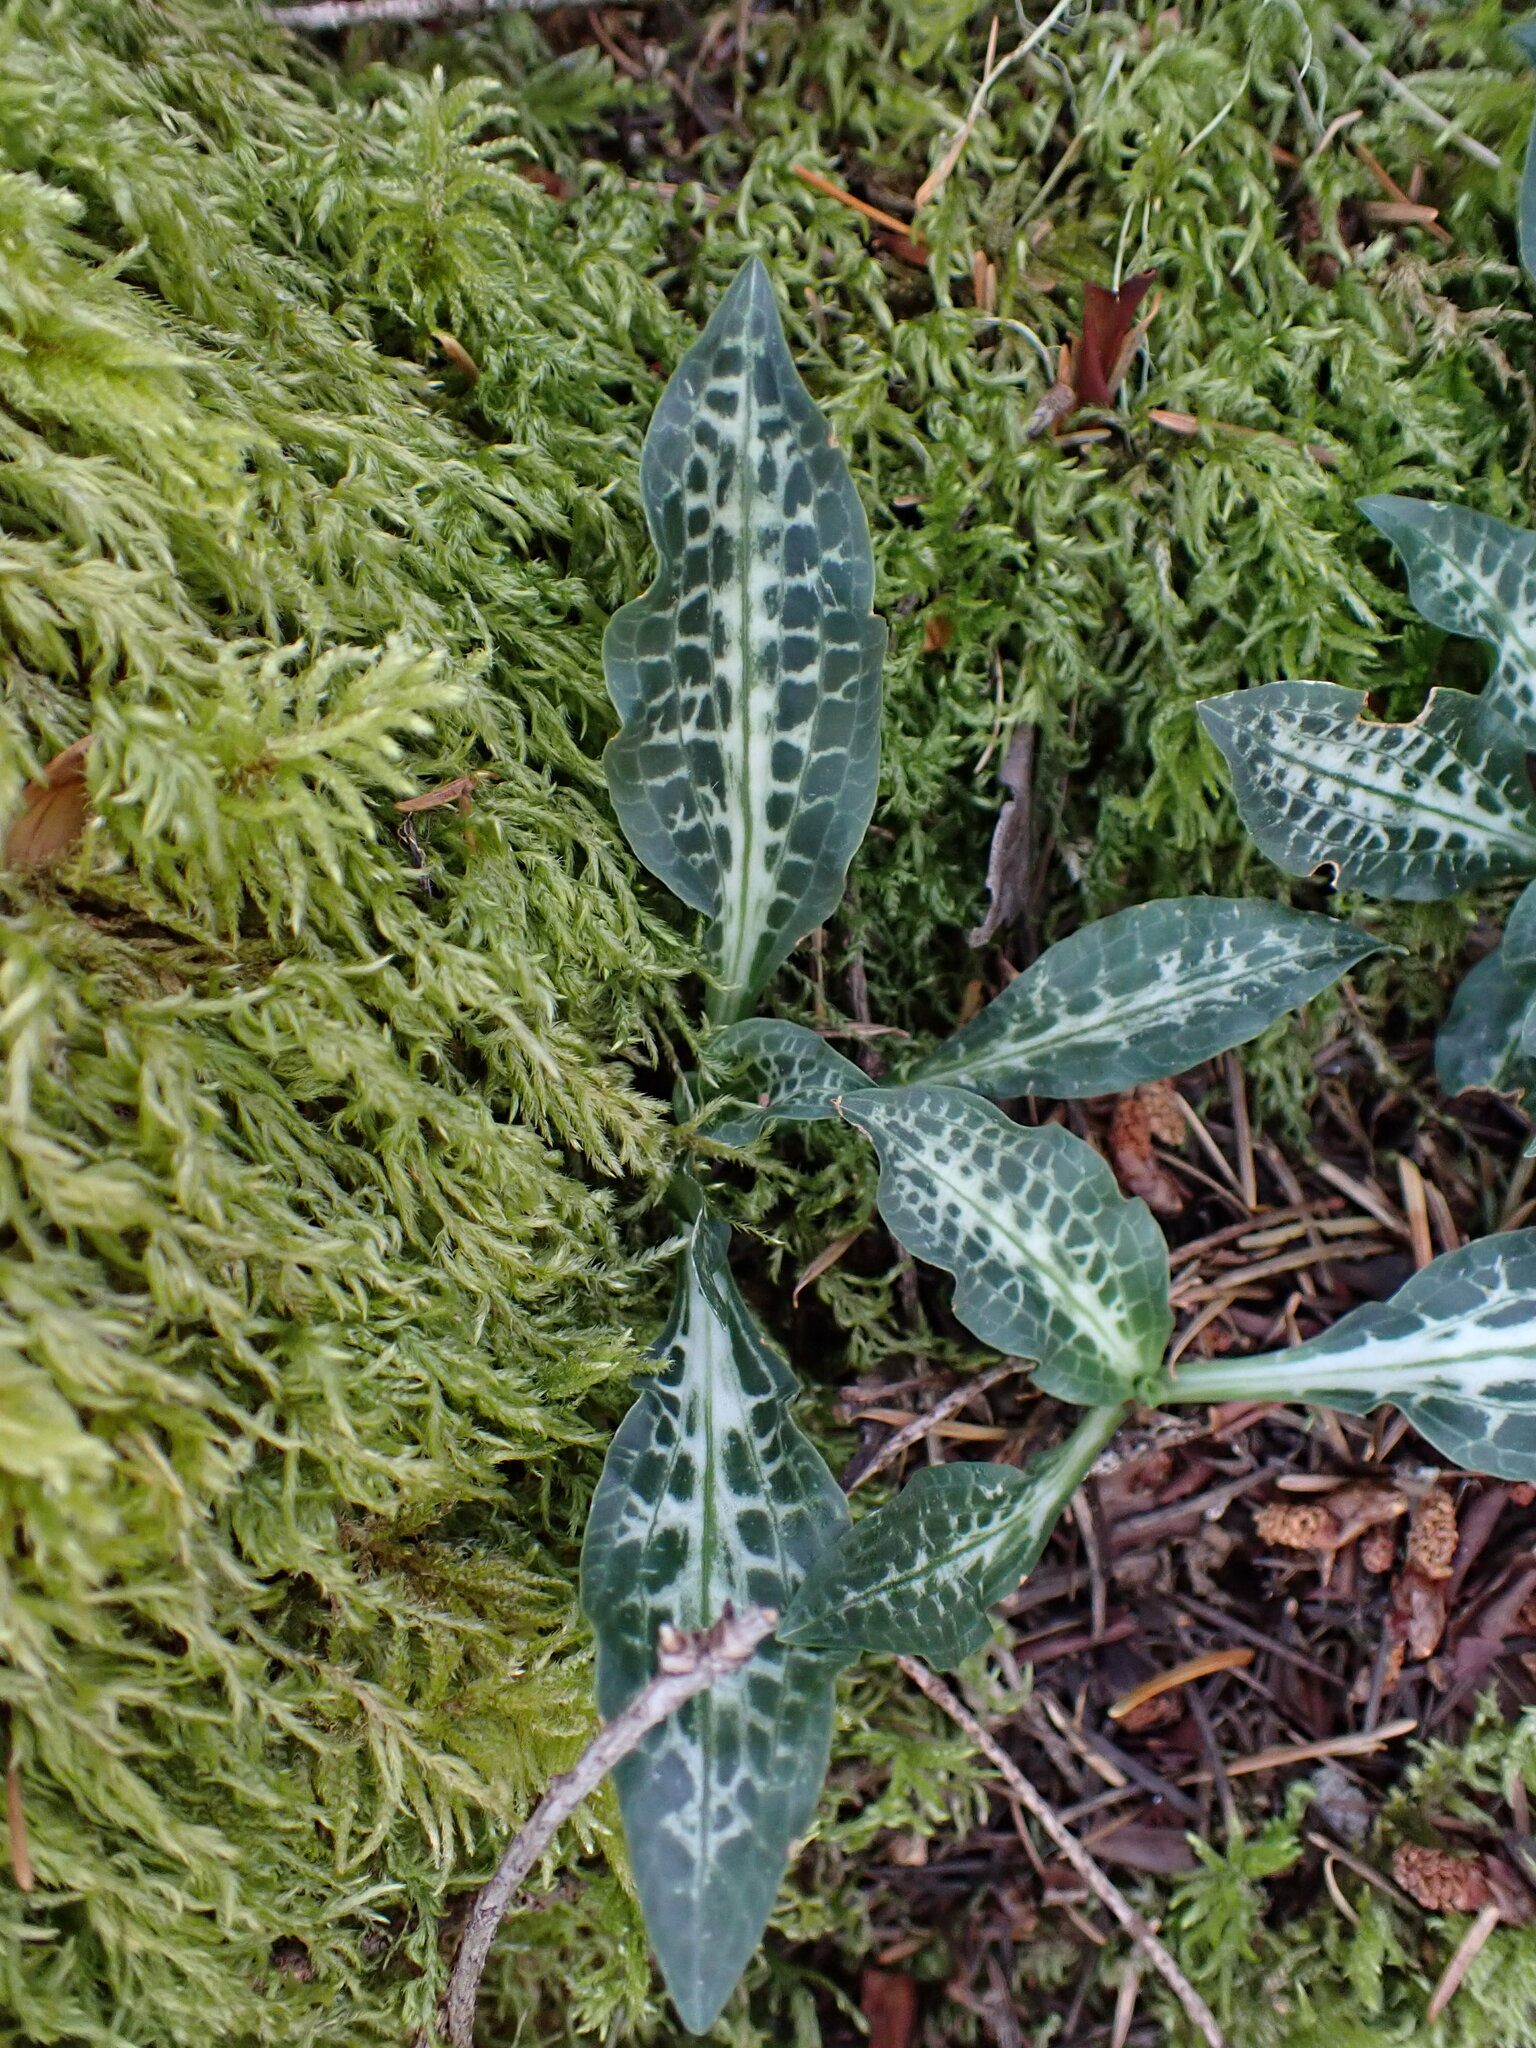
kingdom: Plantae
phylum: Tracheophyta
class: Liliopsida
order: Asparagales
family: Orchidaceae
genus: Goodyera
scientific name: Goodyera oblongifolia
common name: Giant rattlesnake-plantain
